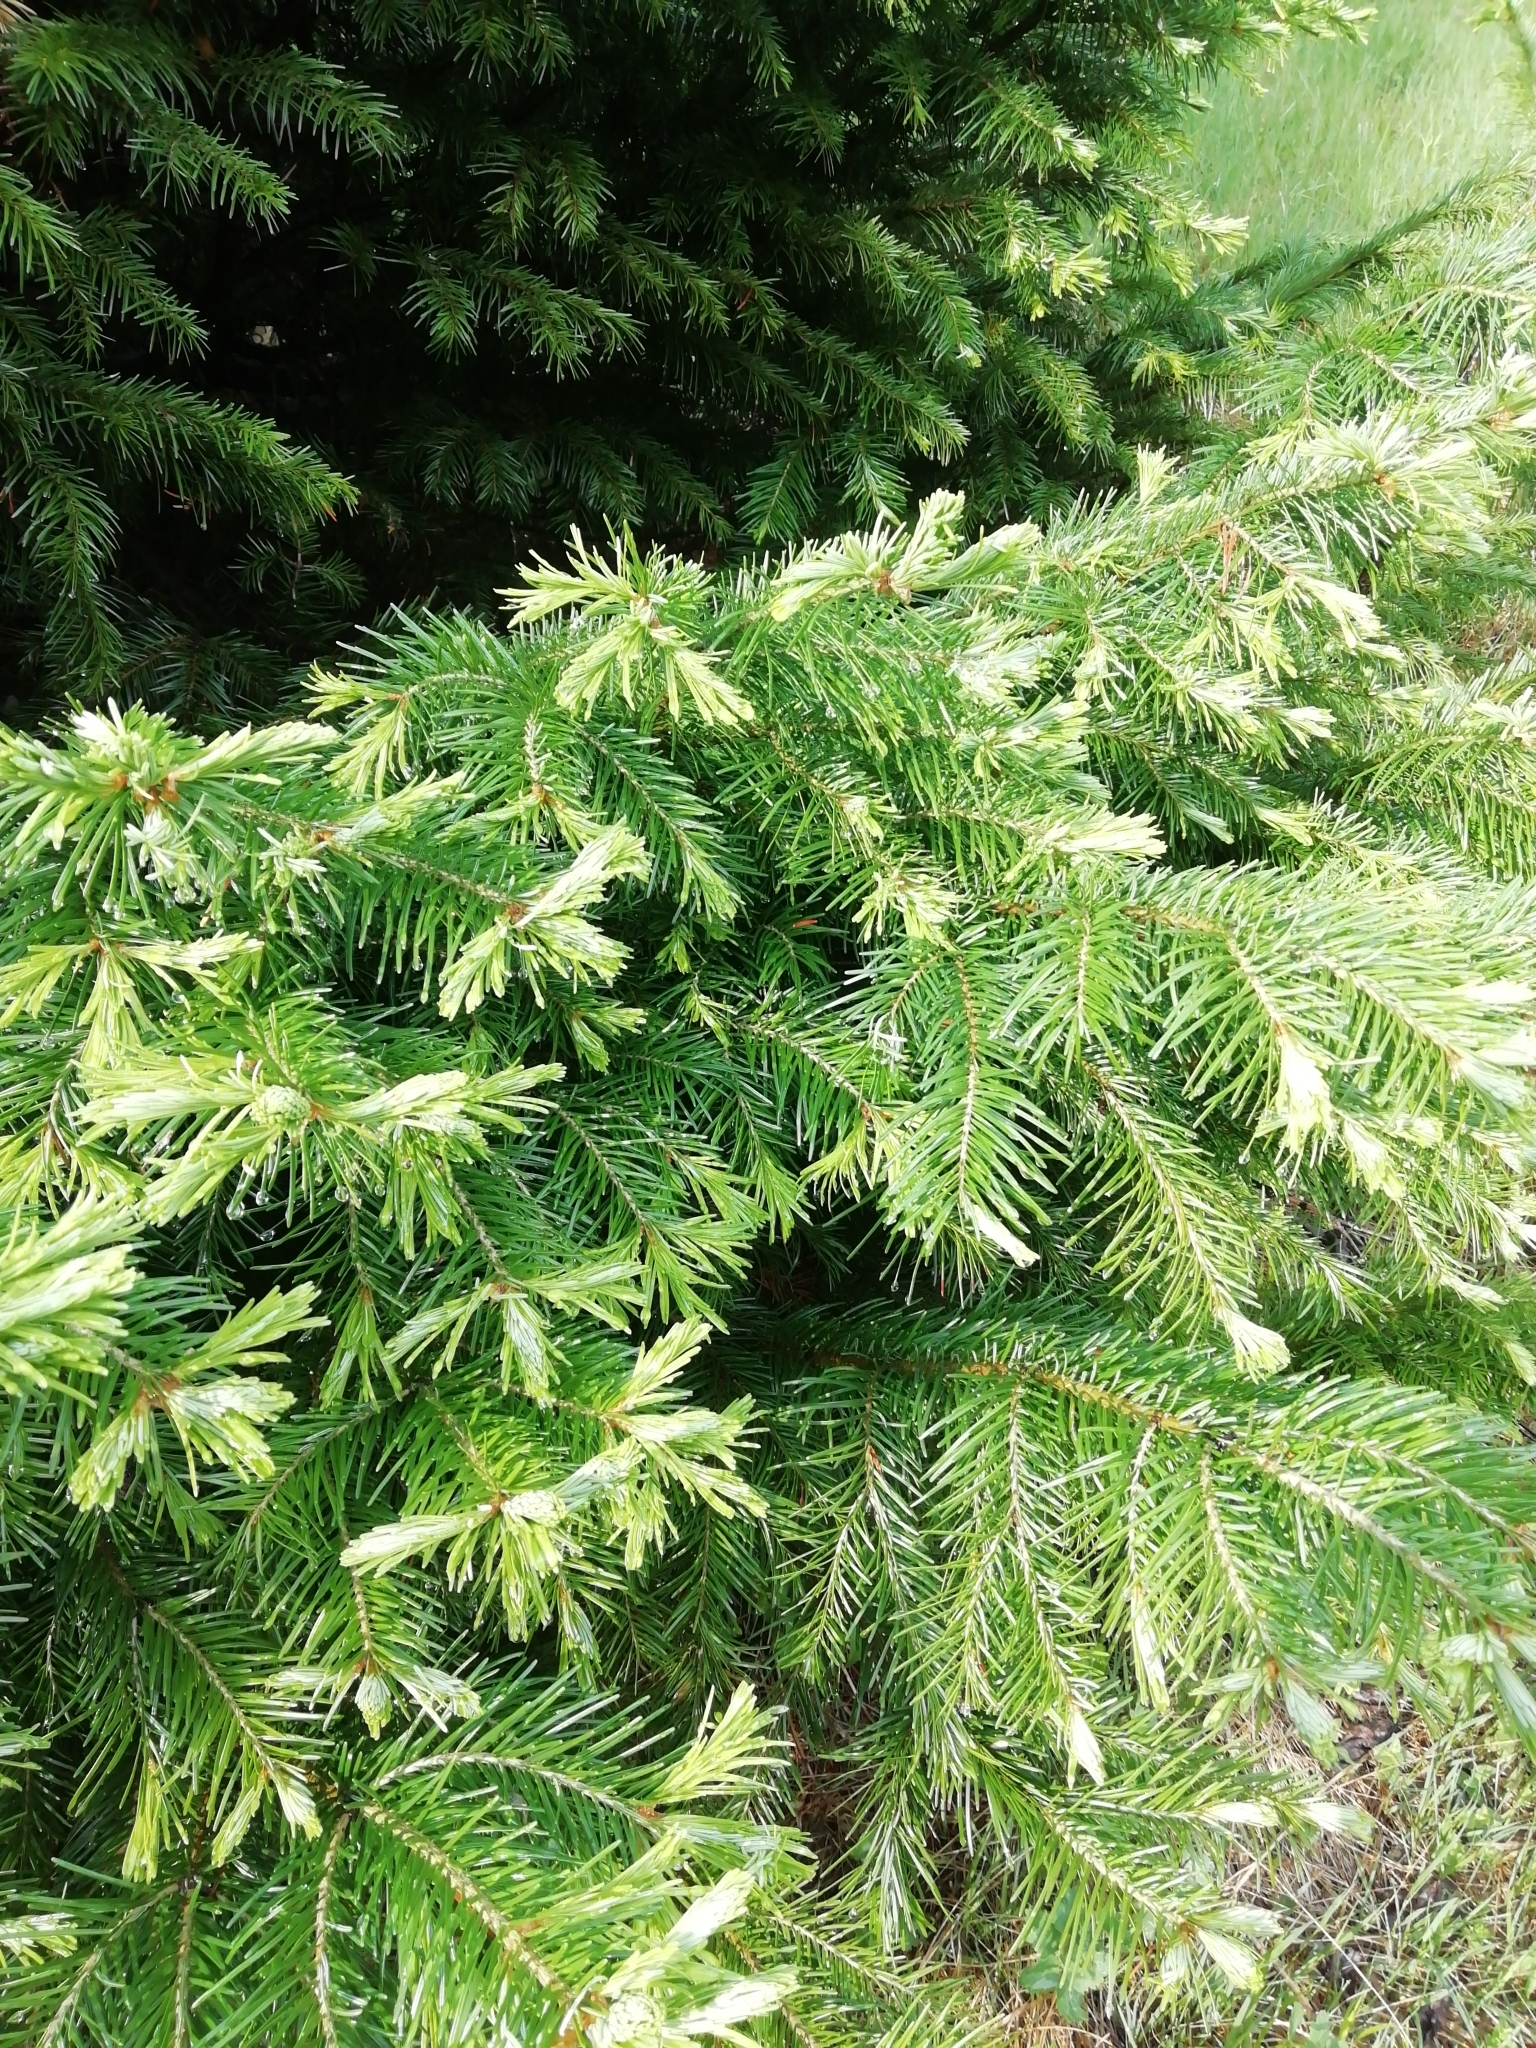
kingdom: Plantae
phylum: Tracheophyta
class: Pinopsida
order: Pinales
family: Pinaceae
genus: Abies
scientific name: Abies sibirica
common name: Siberian fir
